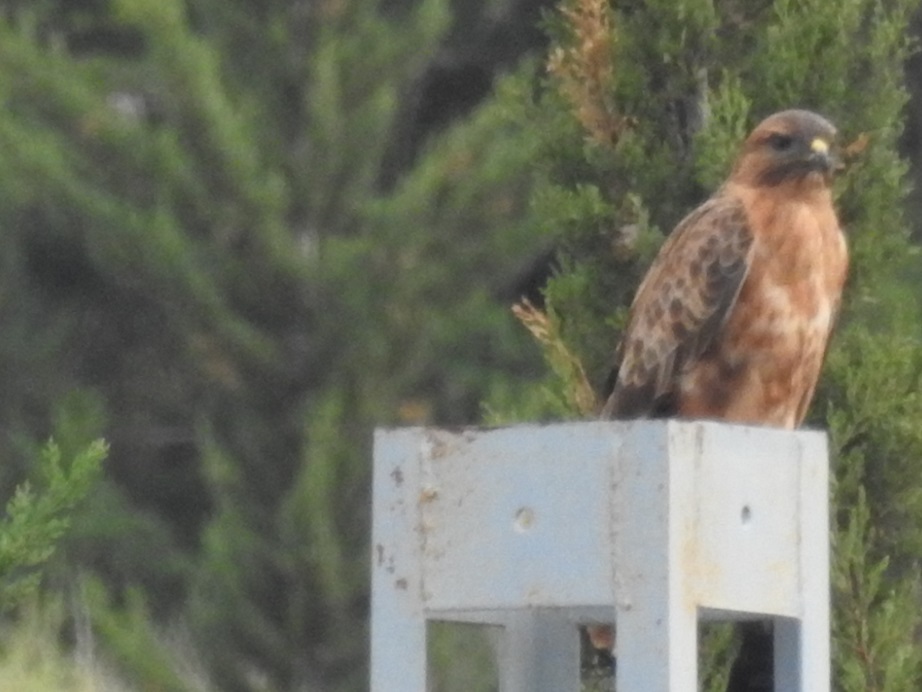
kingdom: Animalia
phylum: Chordata
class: Aves
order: Accipitriformes
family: Accipitridae
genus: Buteo
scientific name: Buteo rufinus
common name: Long-legged buzzard
